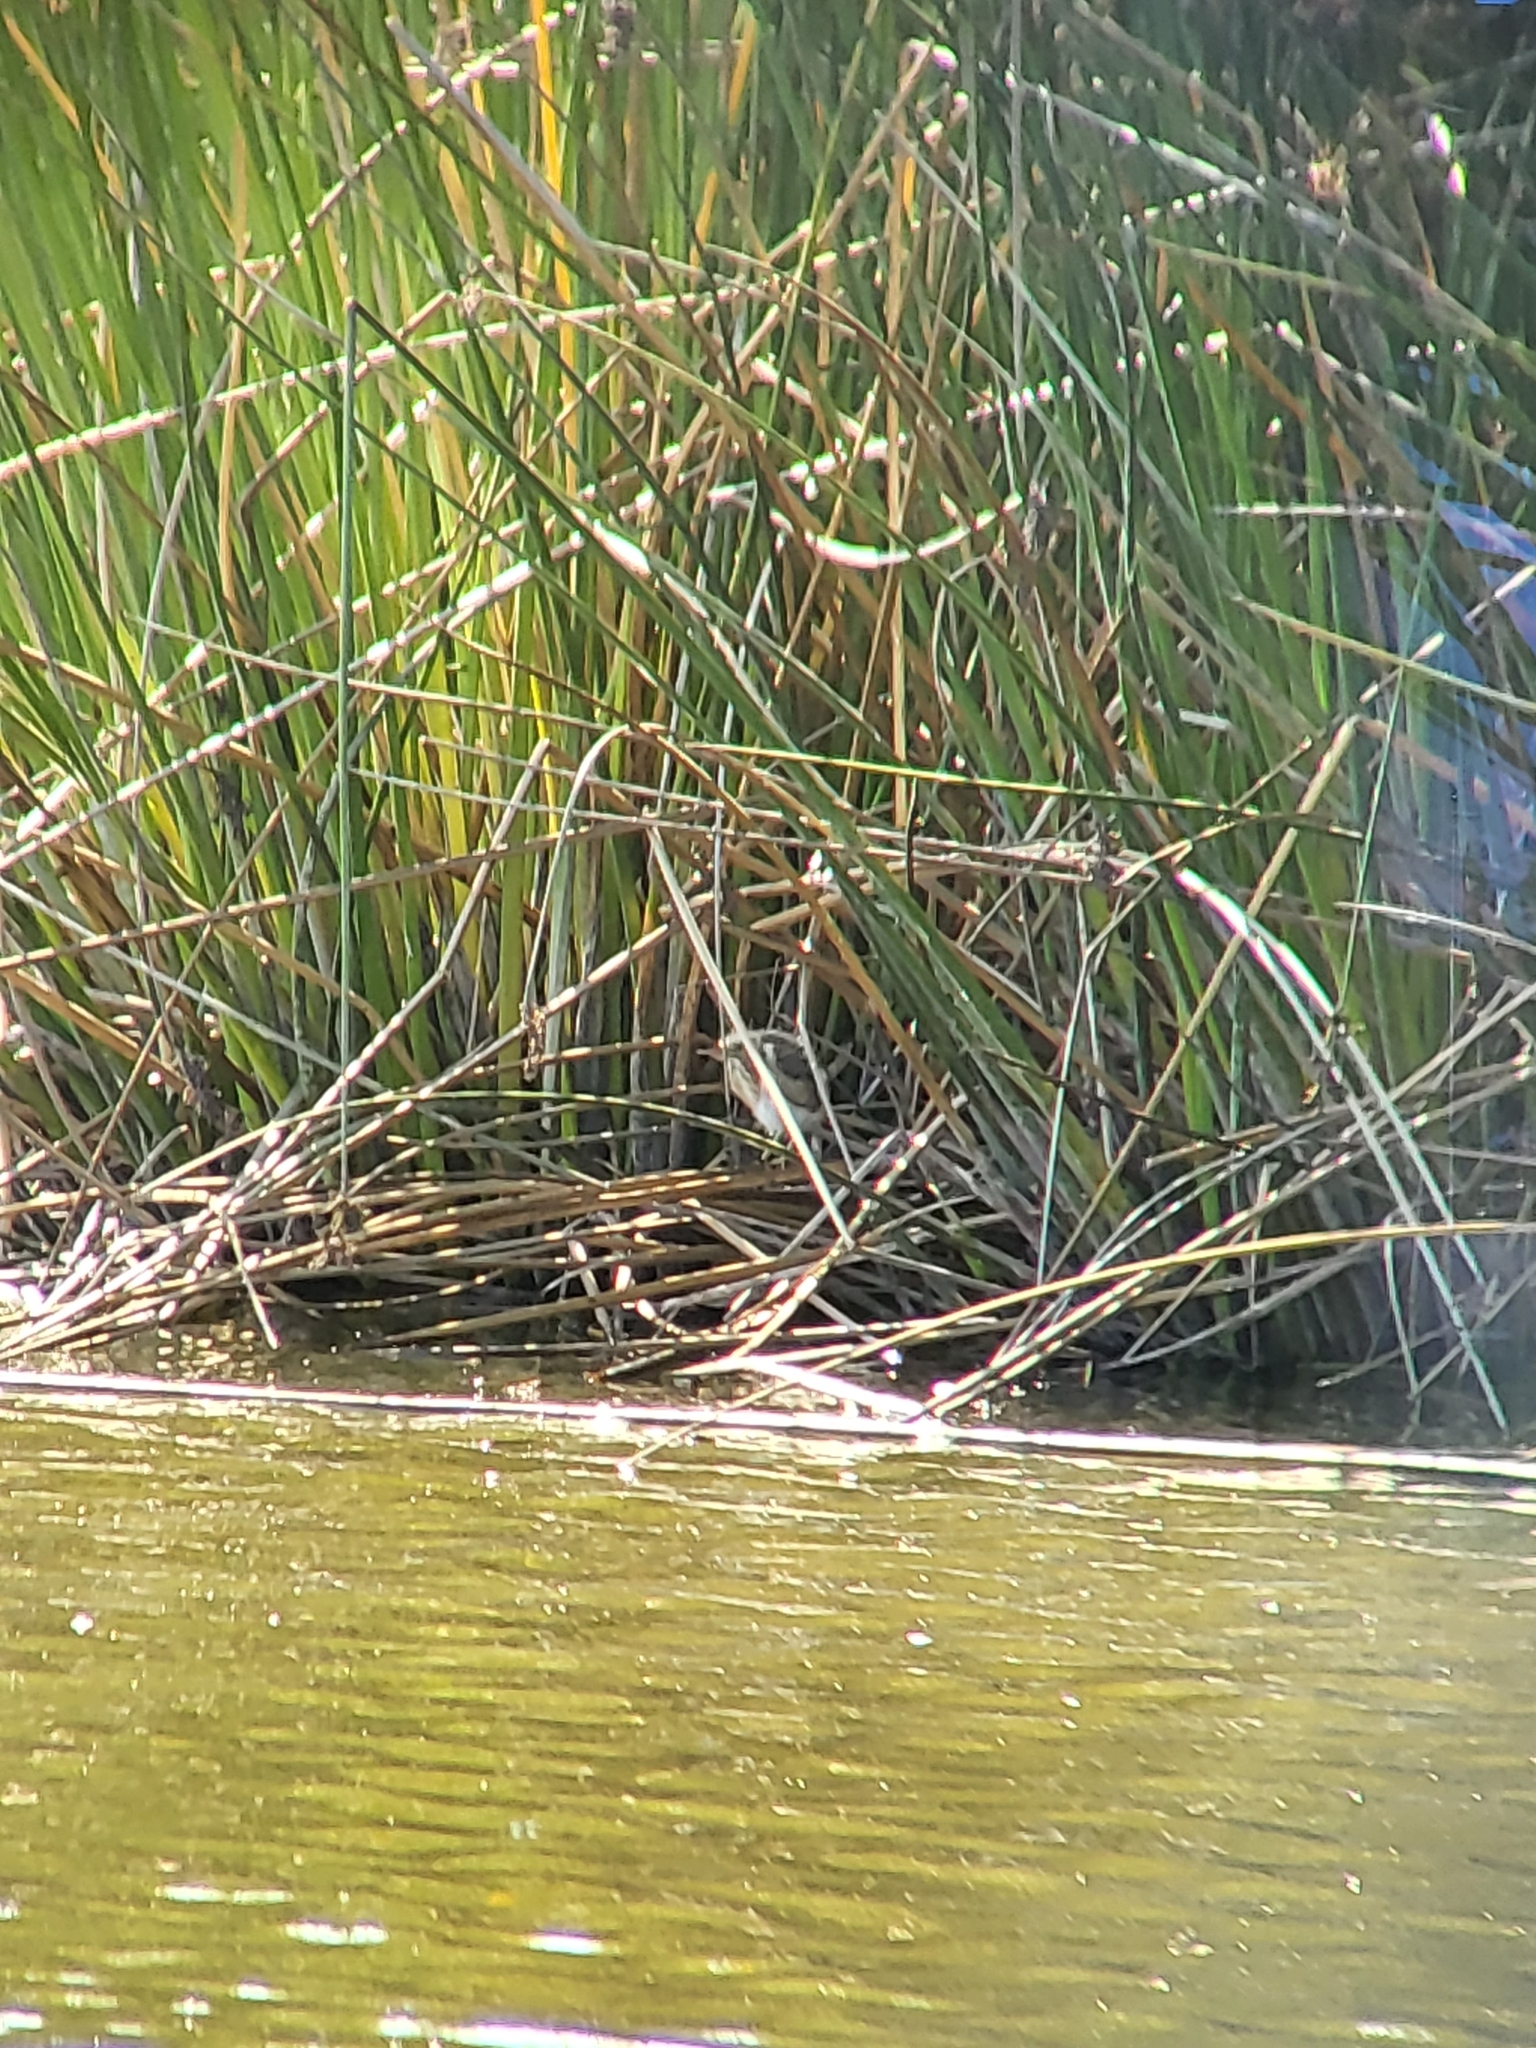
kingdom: Animalia
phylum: Chordata
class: Aves
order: Pelecaniformes
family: Ardeidae
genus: Ixobrychus
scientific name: Ixobrychus exilis
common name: Least bittern
